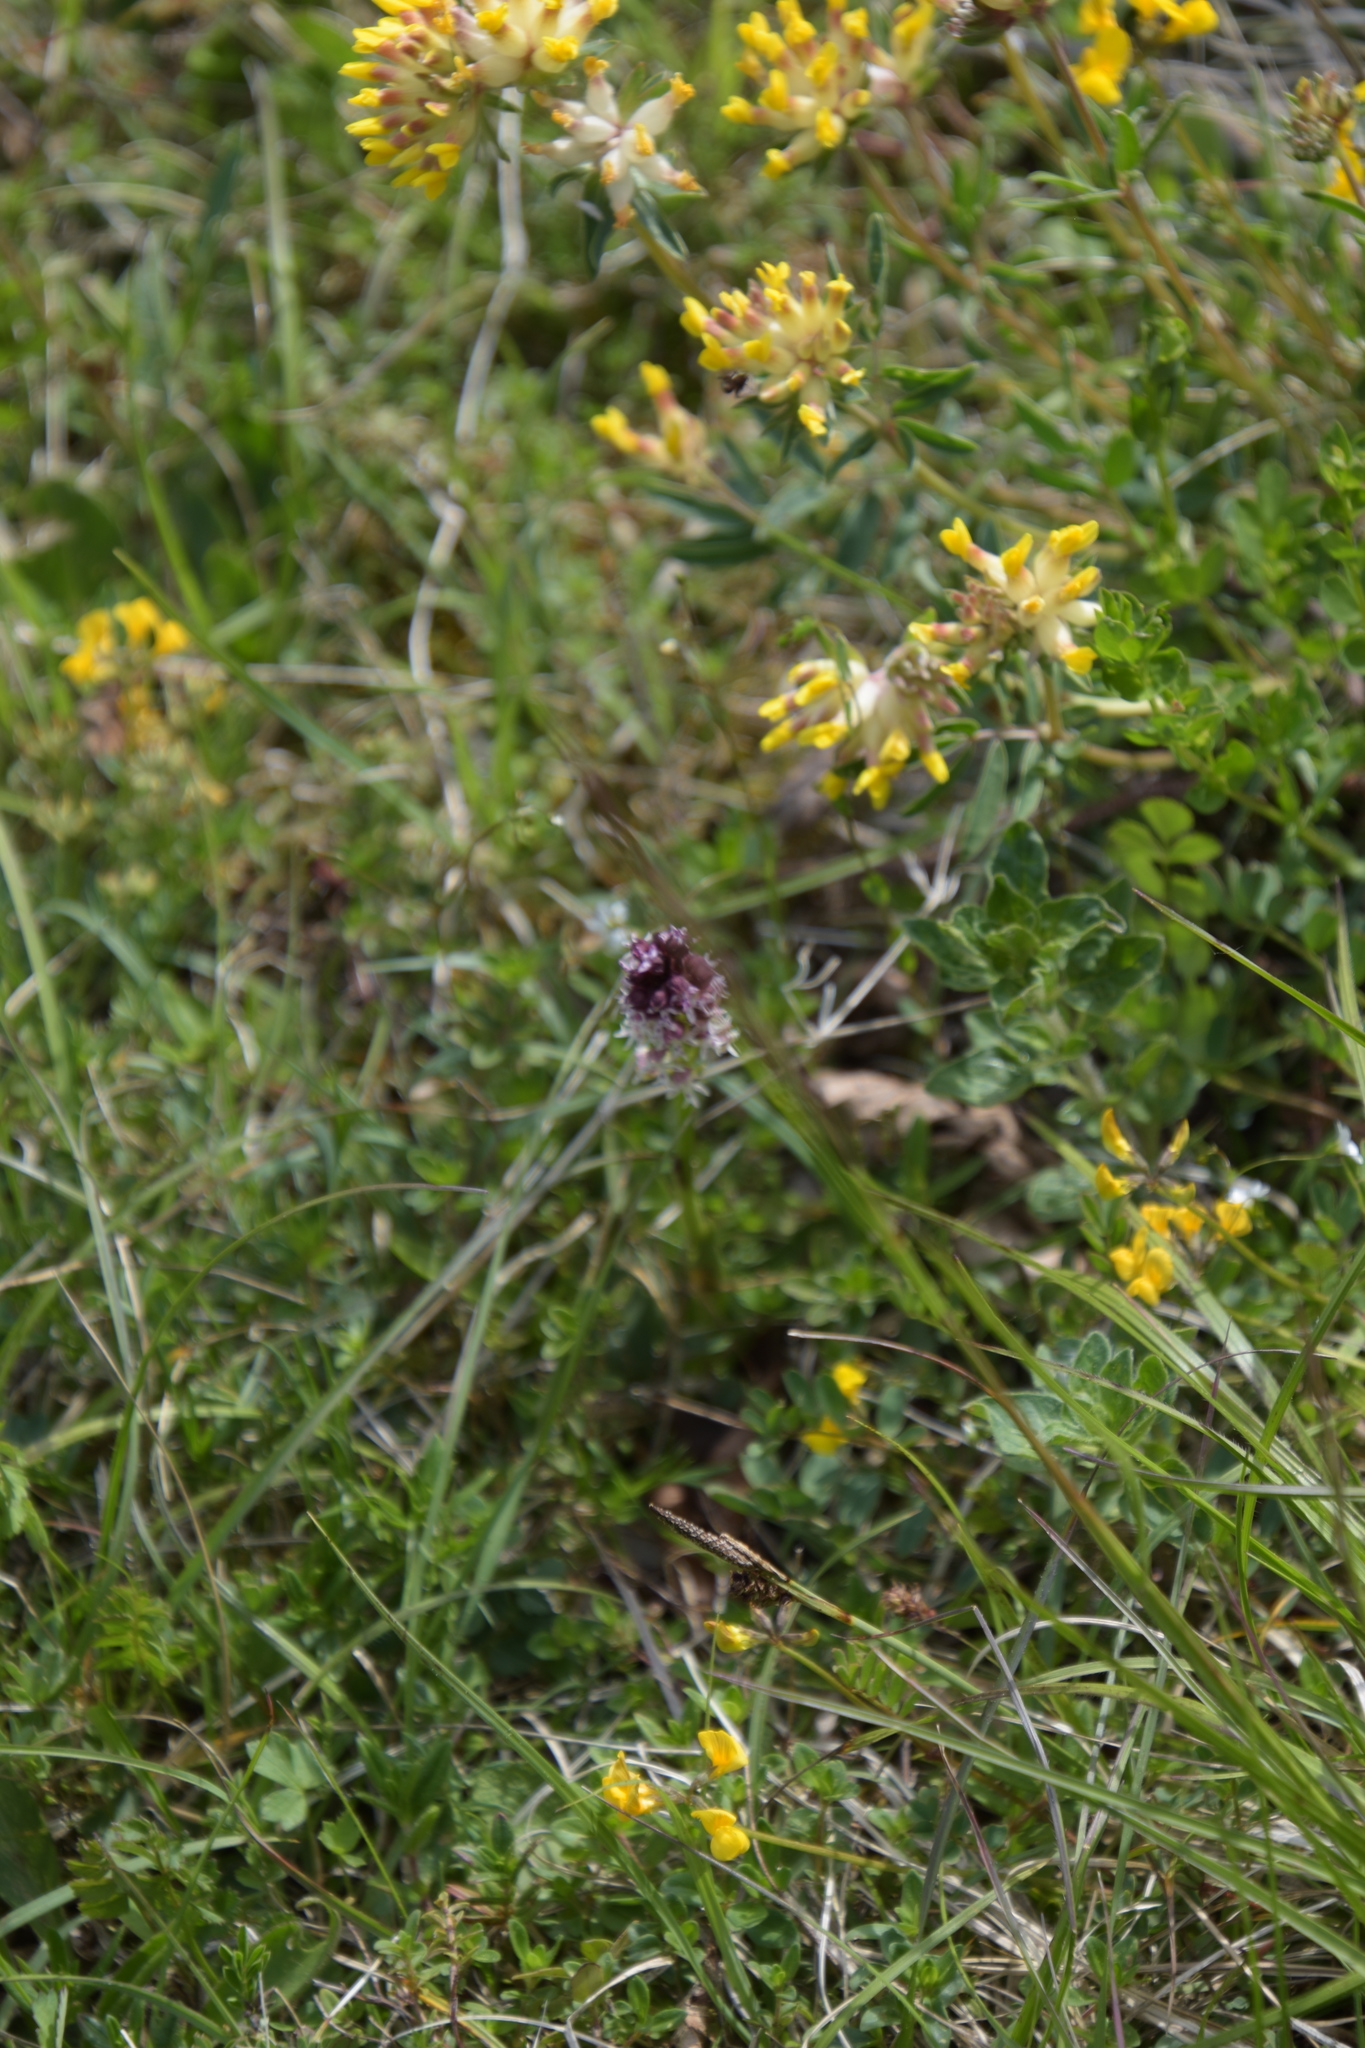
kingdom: Plantae
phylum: Tracheophyta
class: Liliopsida
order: Asparagales
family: Orchidaceae
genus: Neotinea
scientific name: Neotinea ustulata
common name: Burnt orchid
